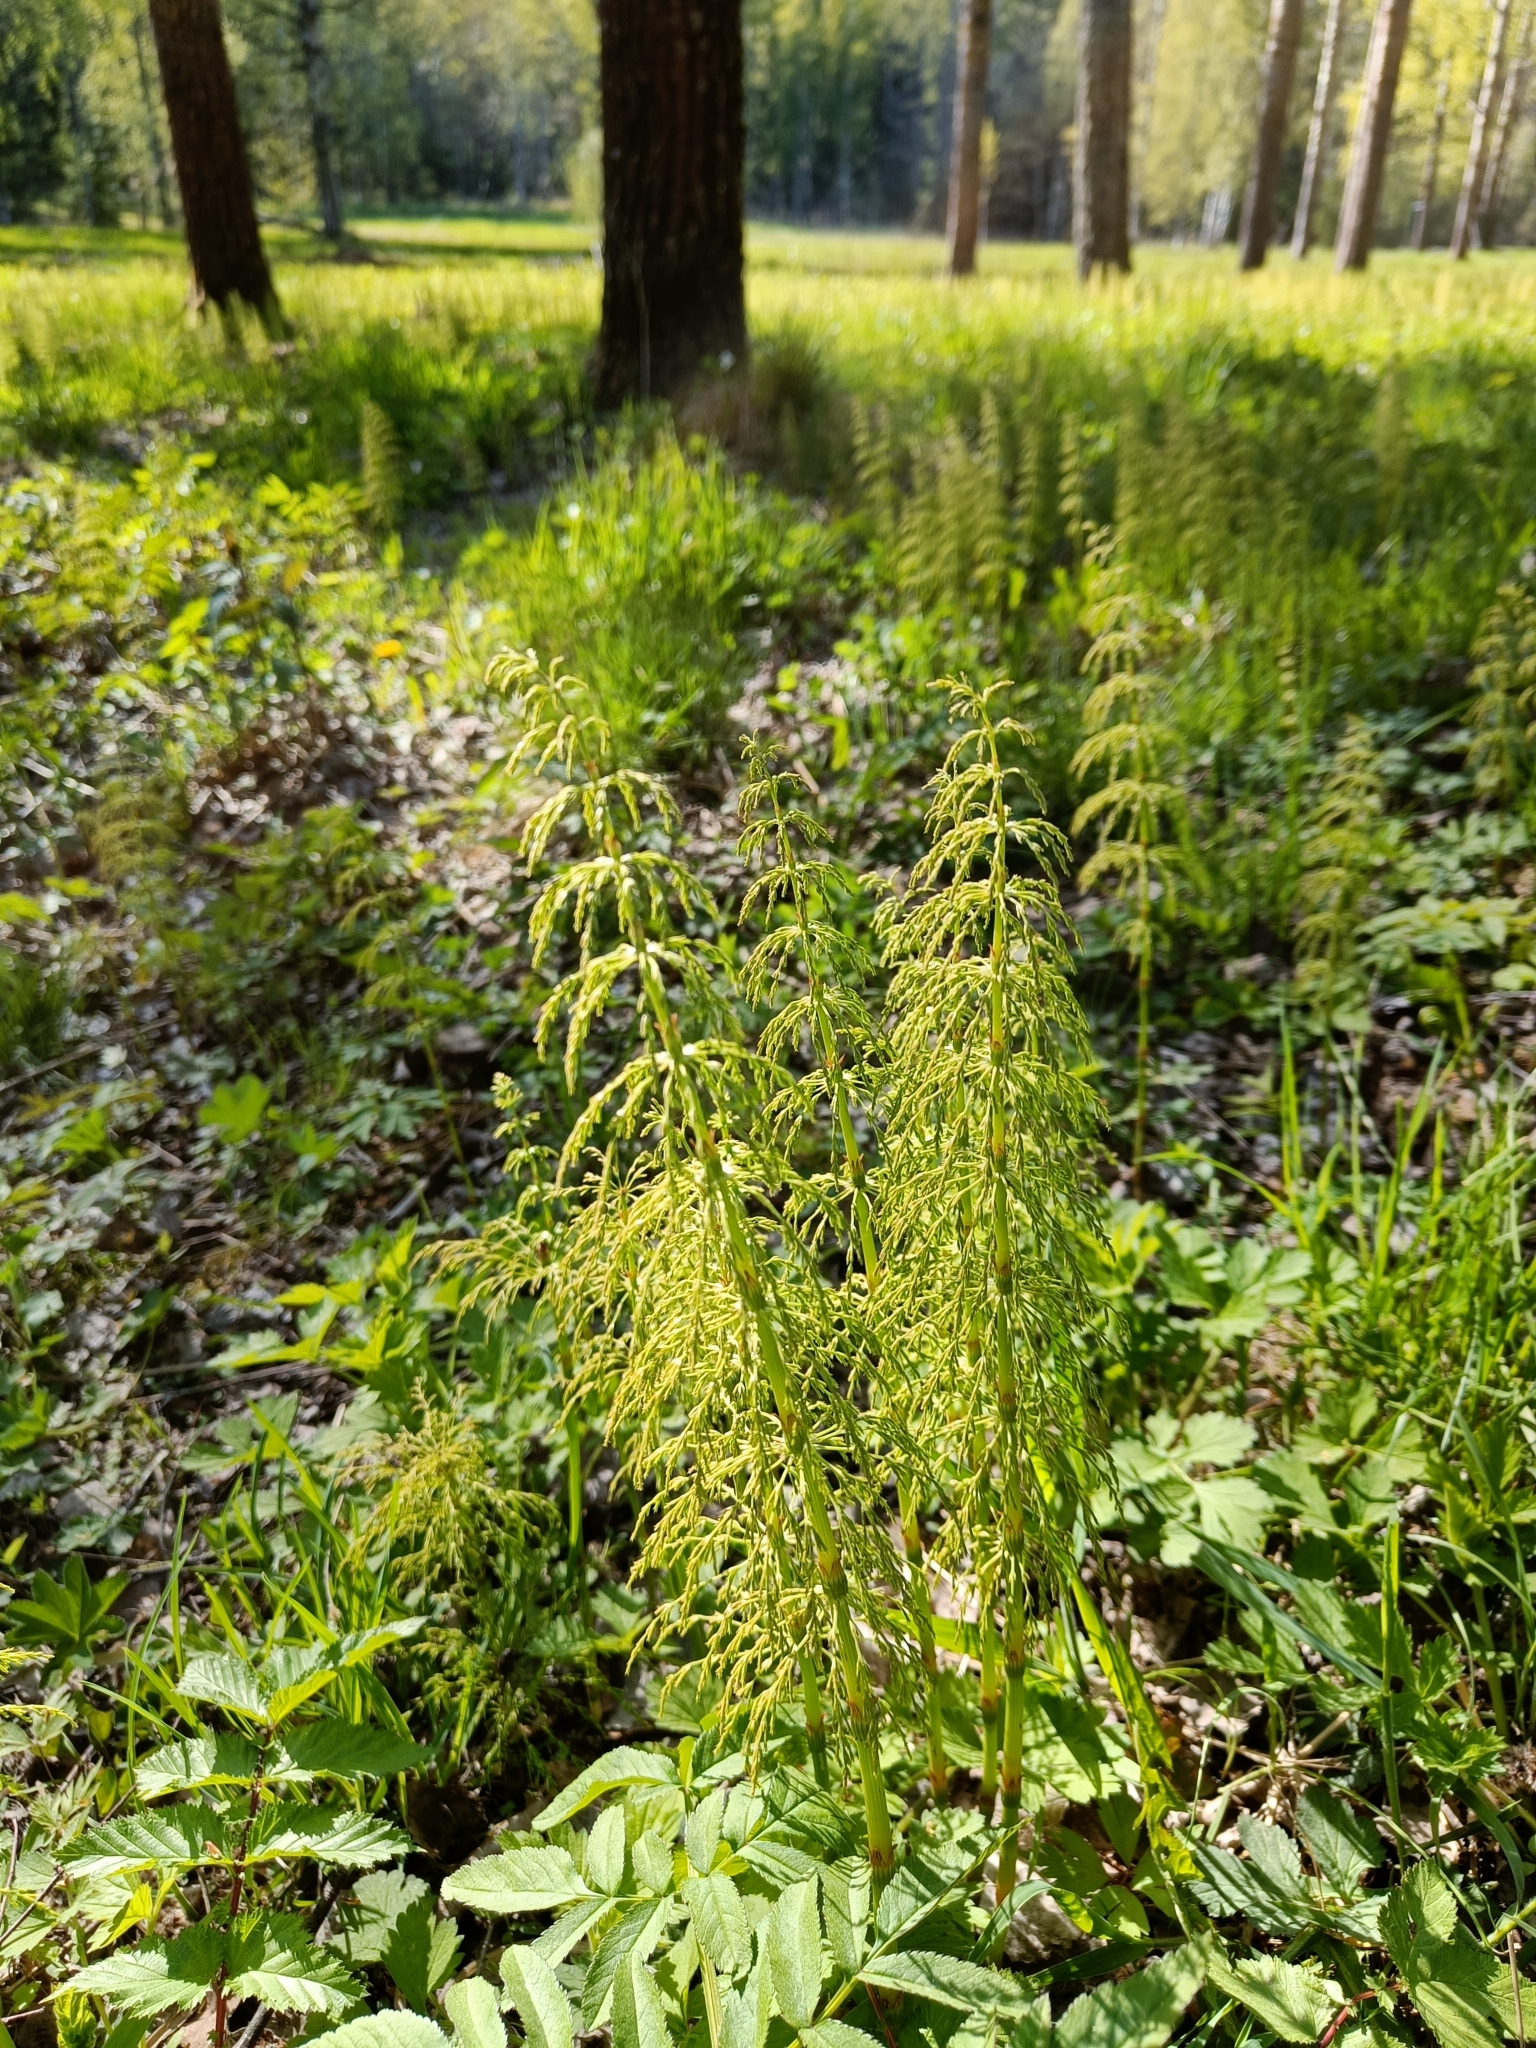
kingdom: Plantae
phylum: Tracheophyta
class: Polypodiopsida
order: Equisetales
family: Equisetaceae
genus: Equisetum
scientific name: Equisetum sylvaticum
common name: Wood horsetail
